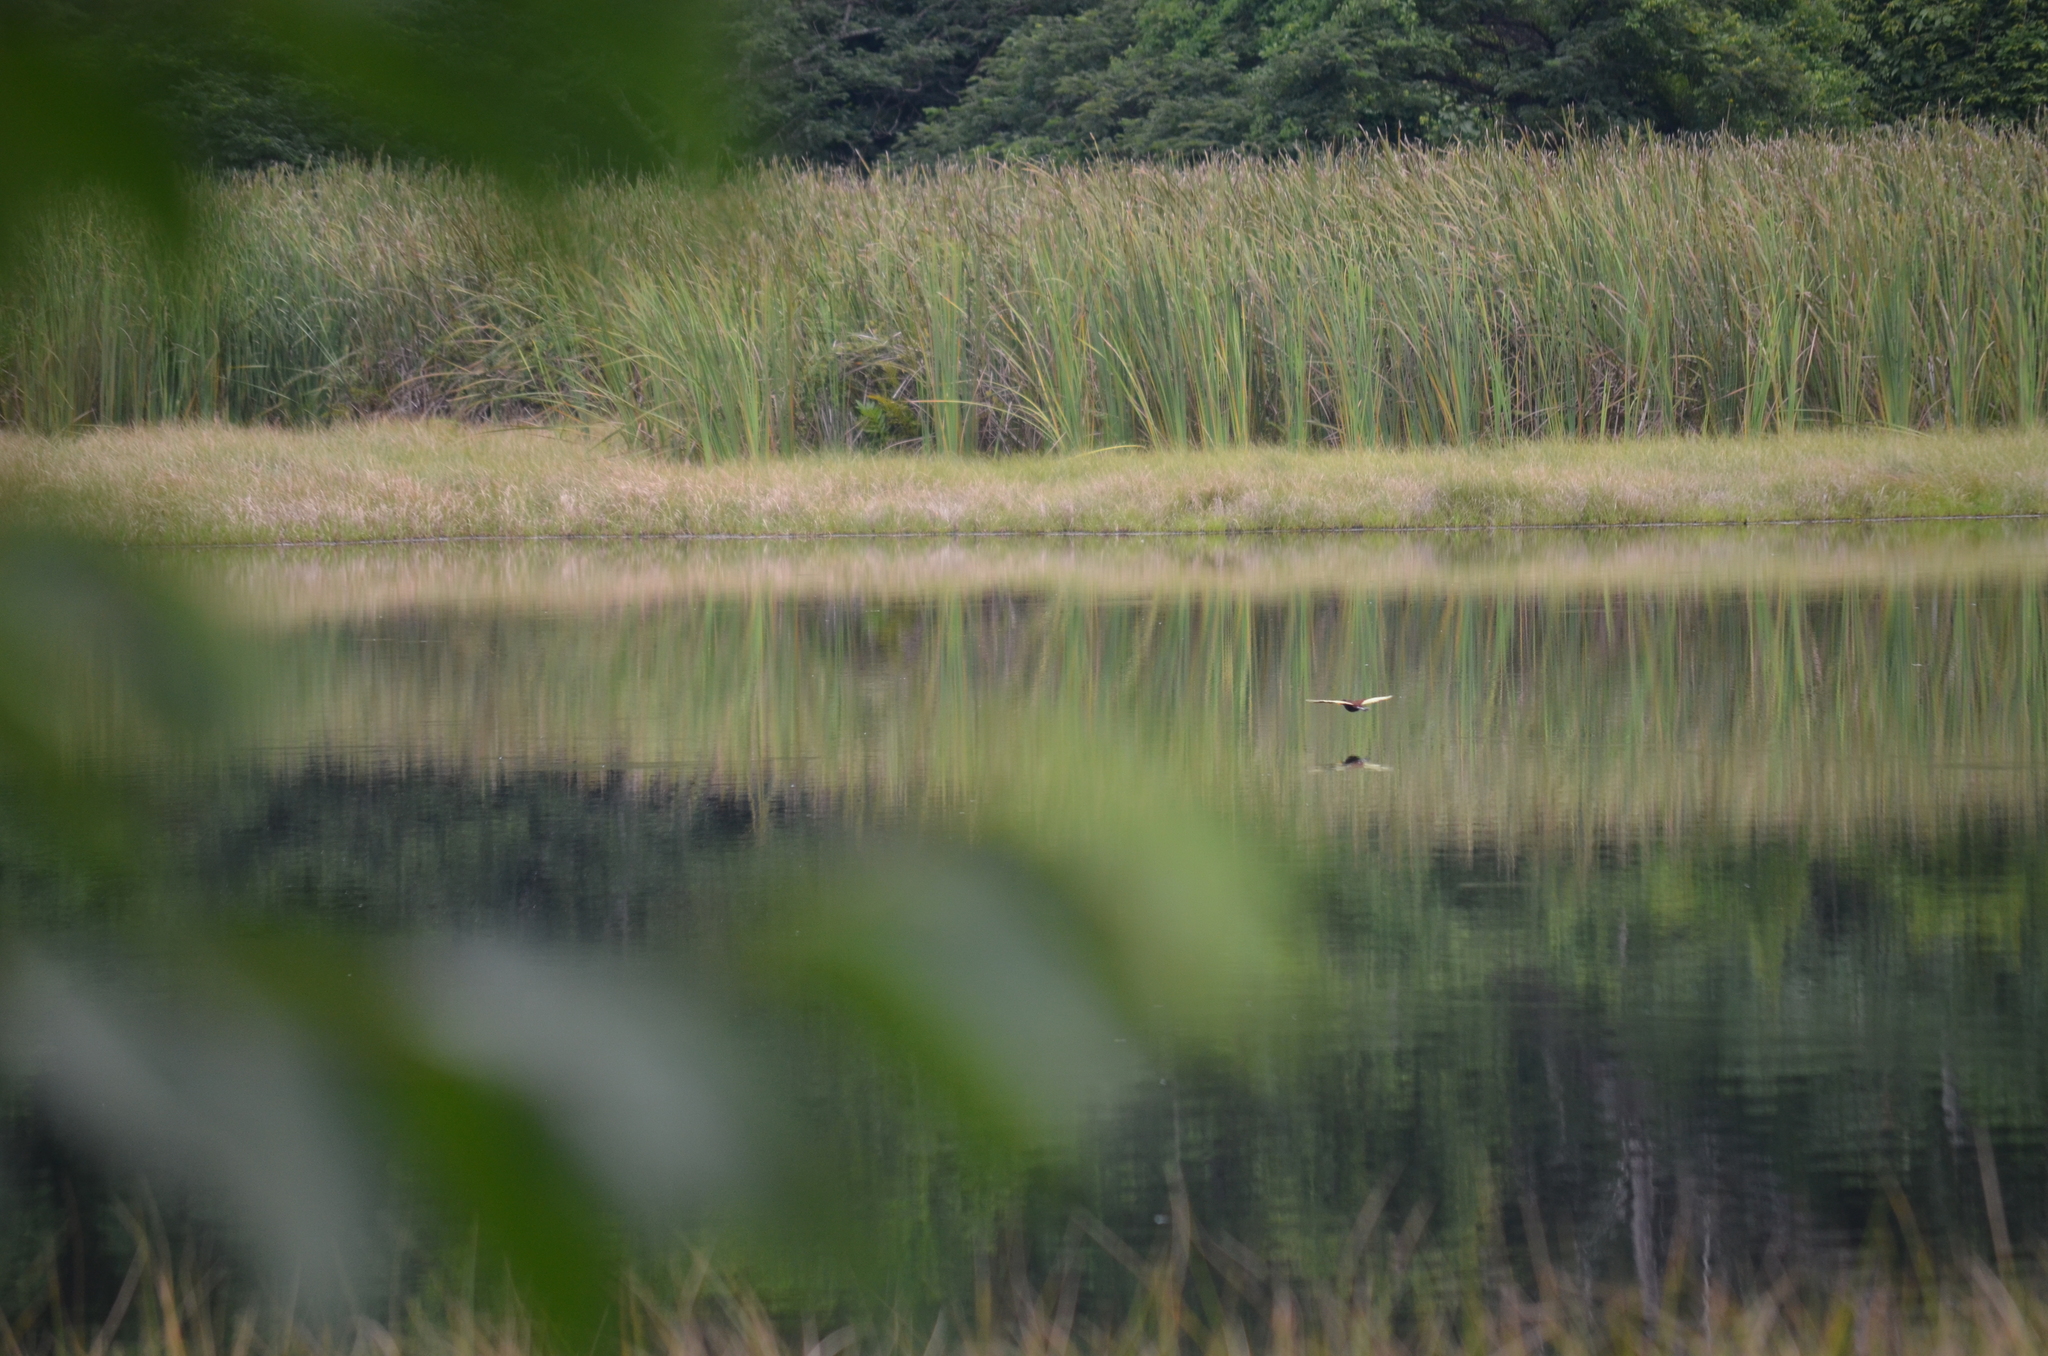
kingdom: Animalia
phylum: Chordata
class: Aves
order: Charadriiformes
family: Jacanidae
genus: Jacana
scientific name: Jacana spinosa
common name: Northern jacana
